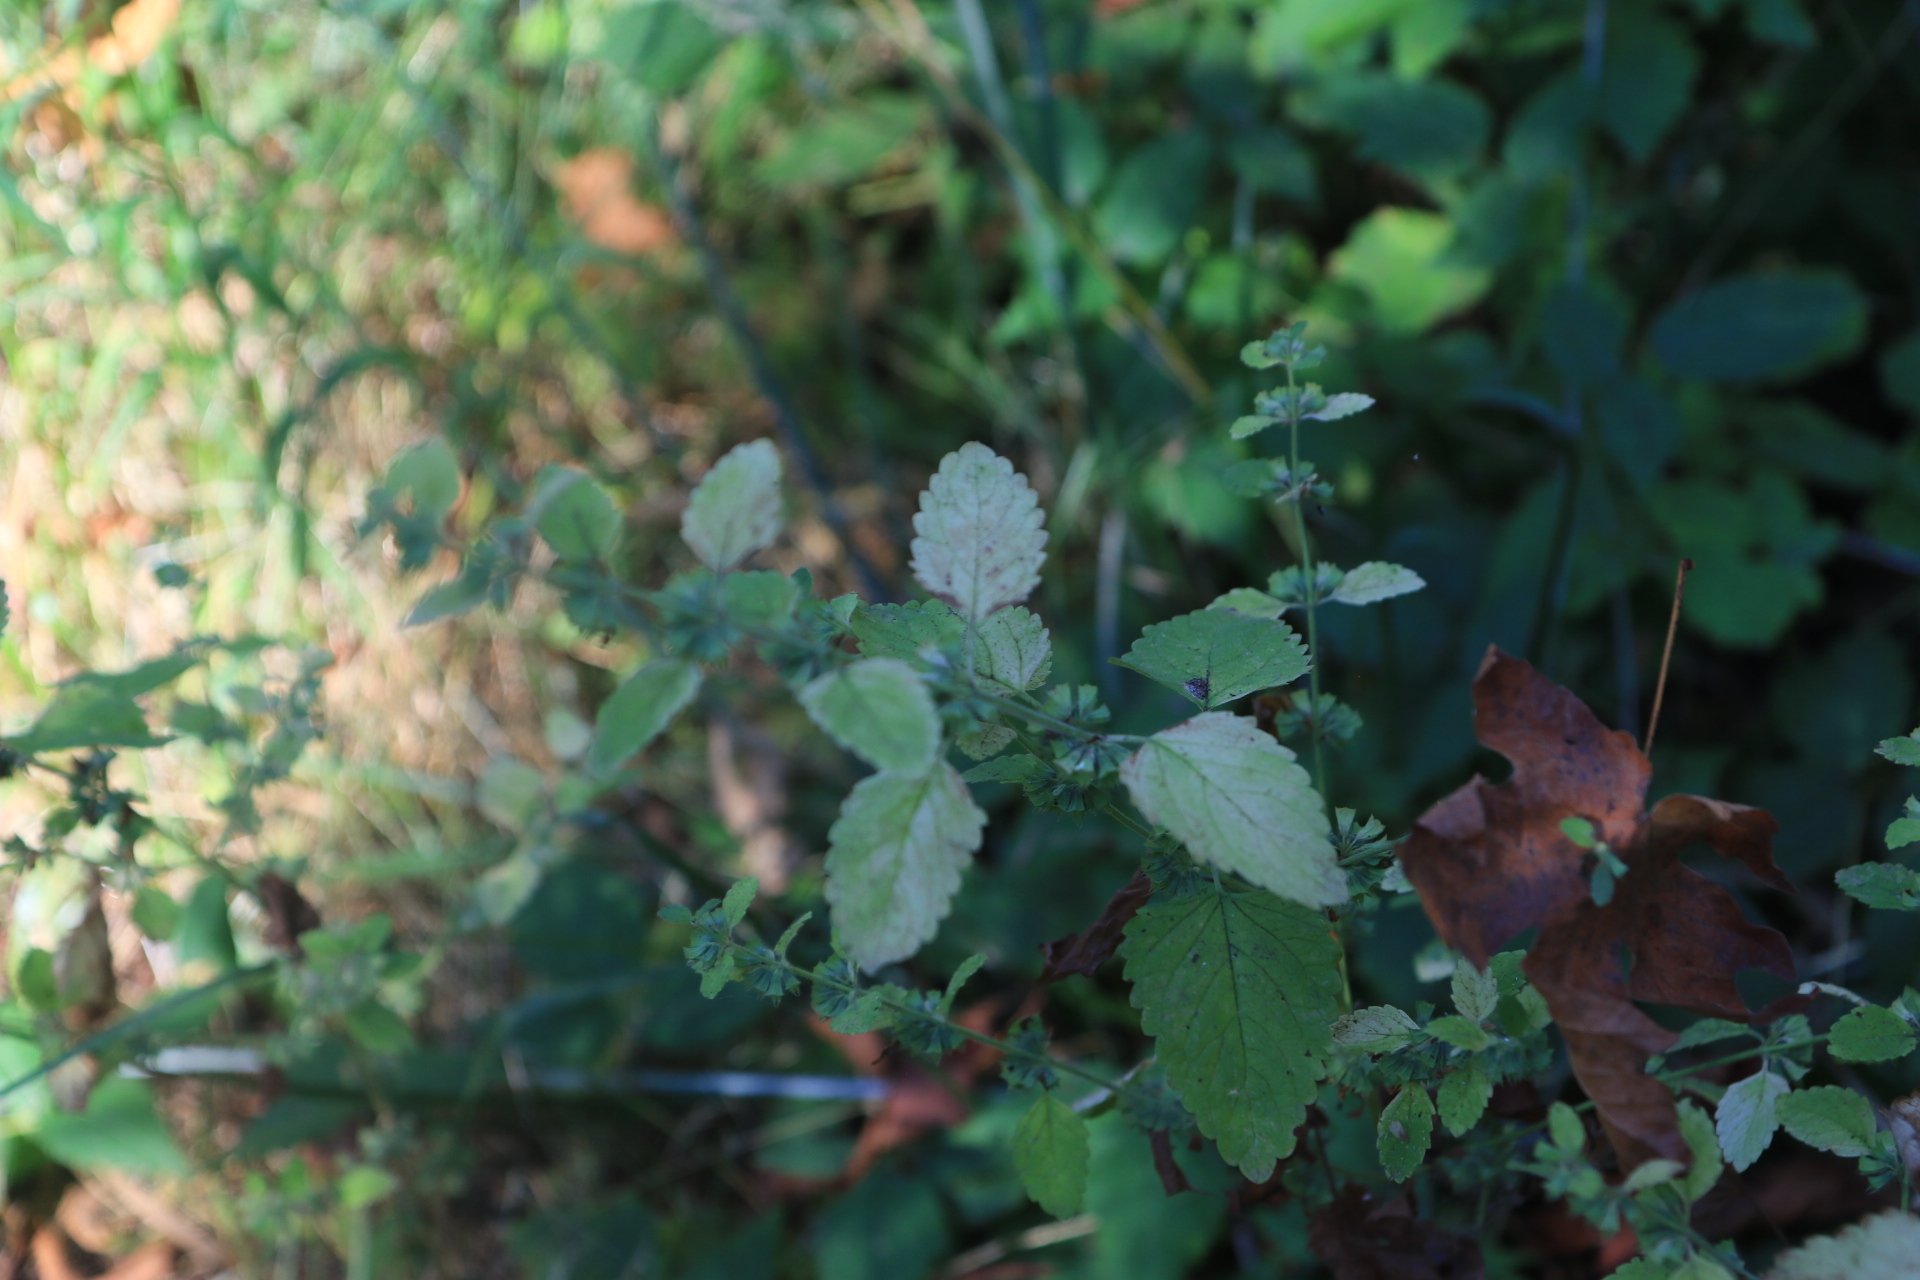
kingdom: Plantae
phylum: Tracheophyta
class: Magnoliopsida
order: Lamiales
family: Lamiaceae
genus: Melissa
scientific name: Melissa officinalis
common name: Balm
